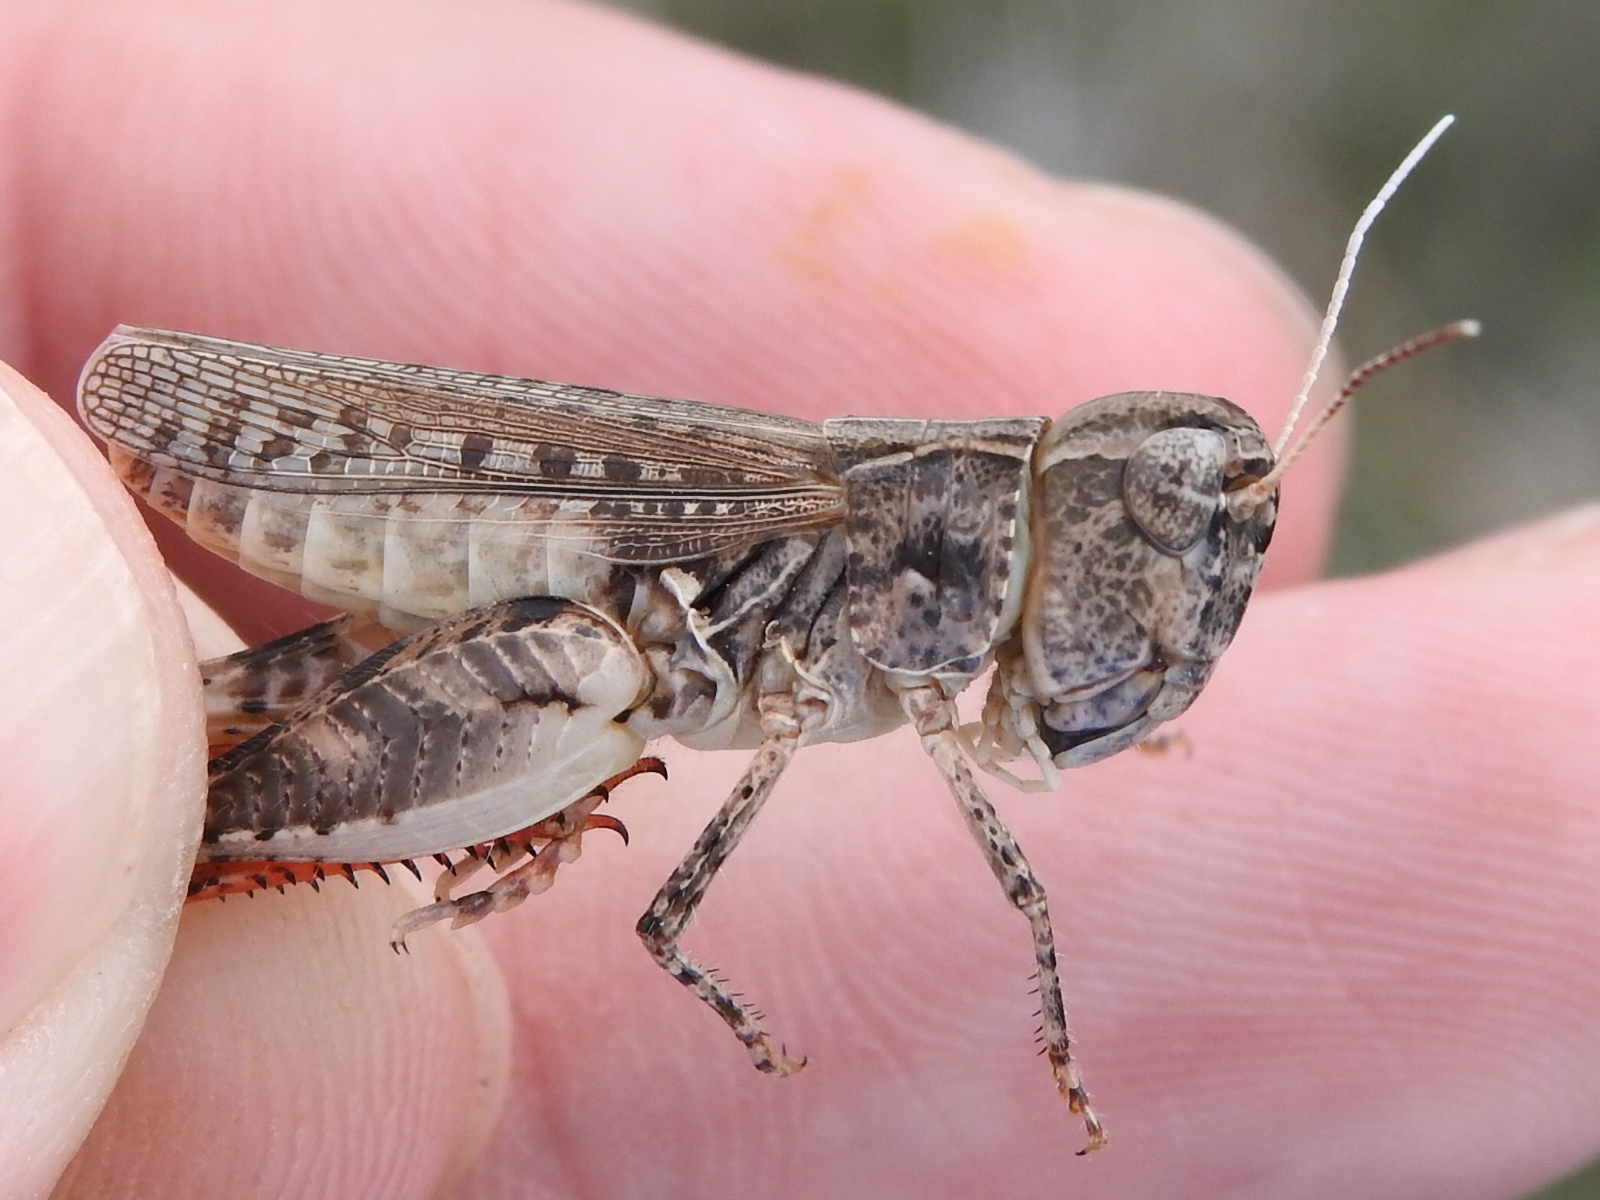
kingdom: Animalia
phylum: Arthropoda
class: Insecta
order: Orthoptera
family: Acrididae
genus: Ageneotettix
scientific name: Ageneotettix deorum
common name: White-whiskered grasshopper
